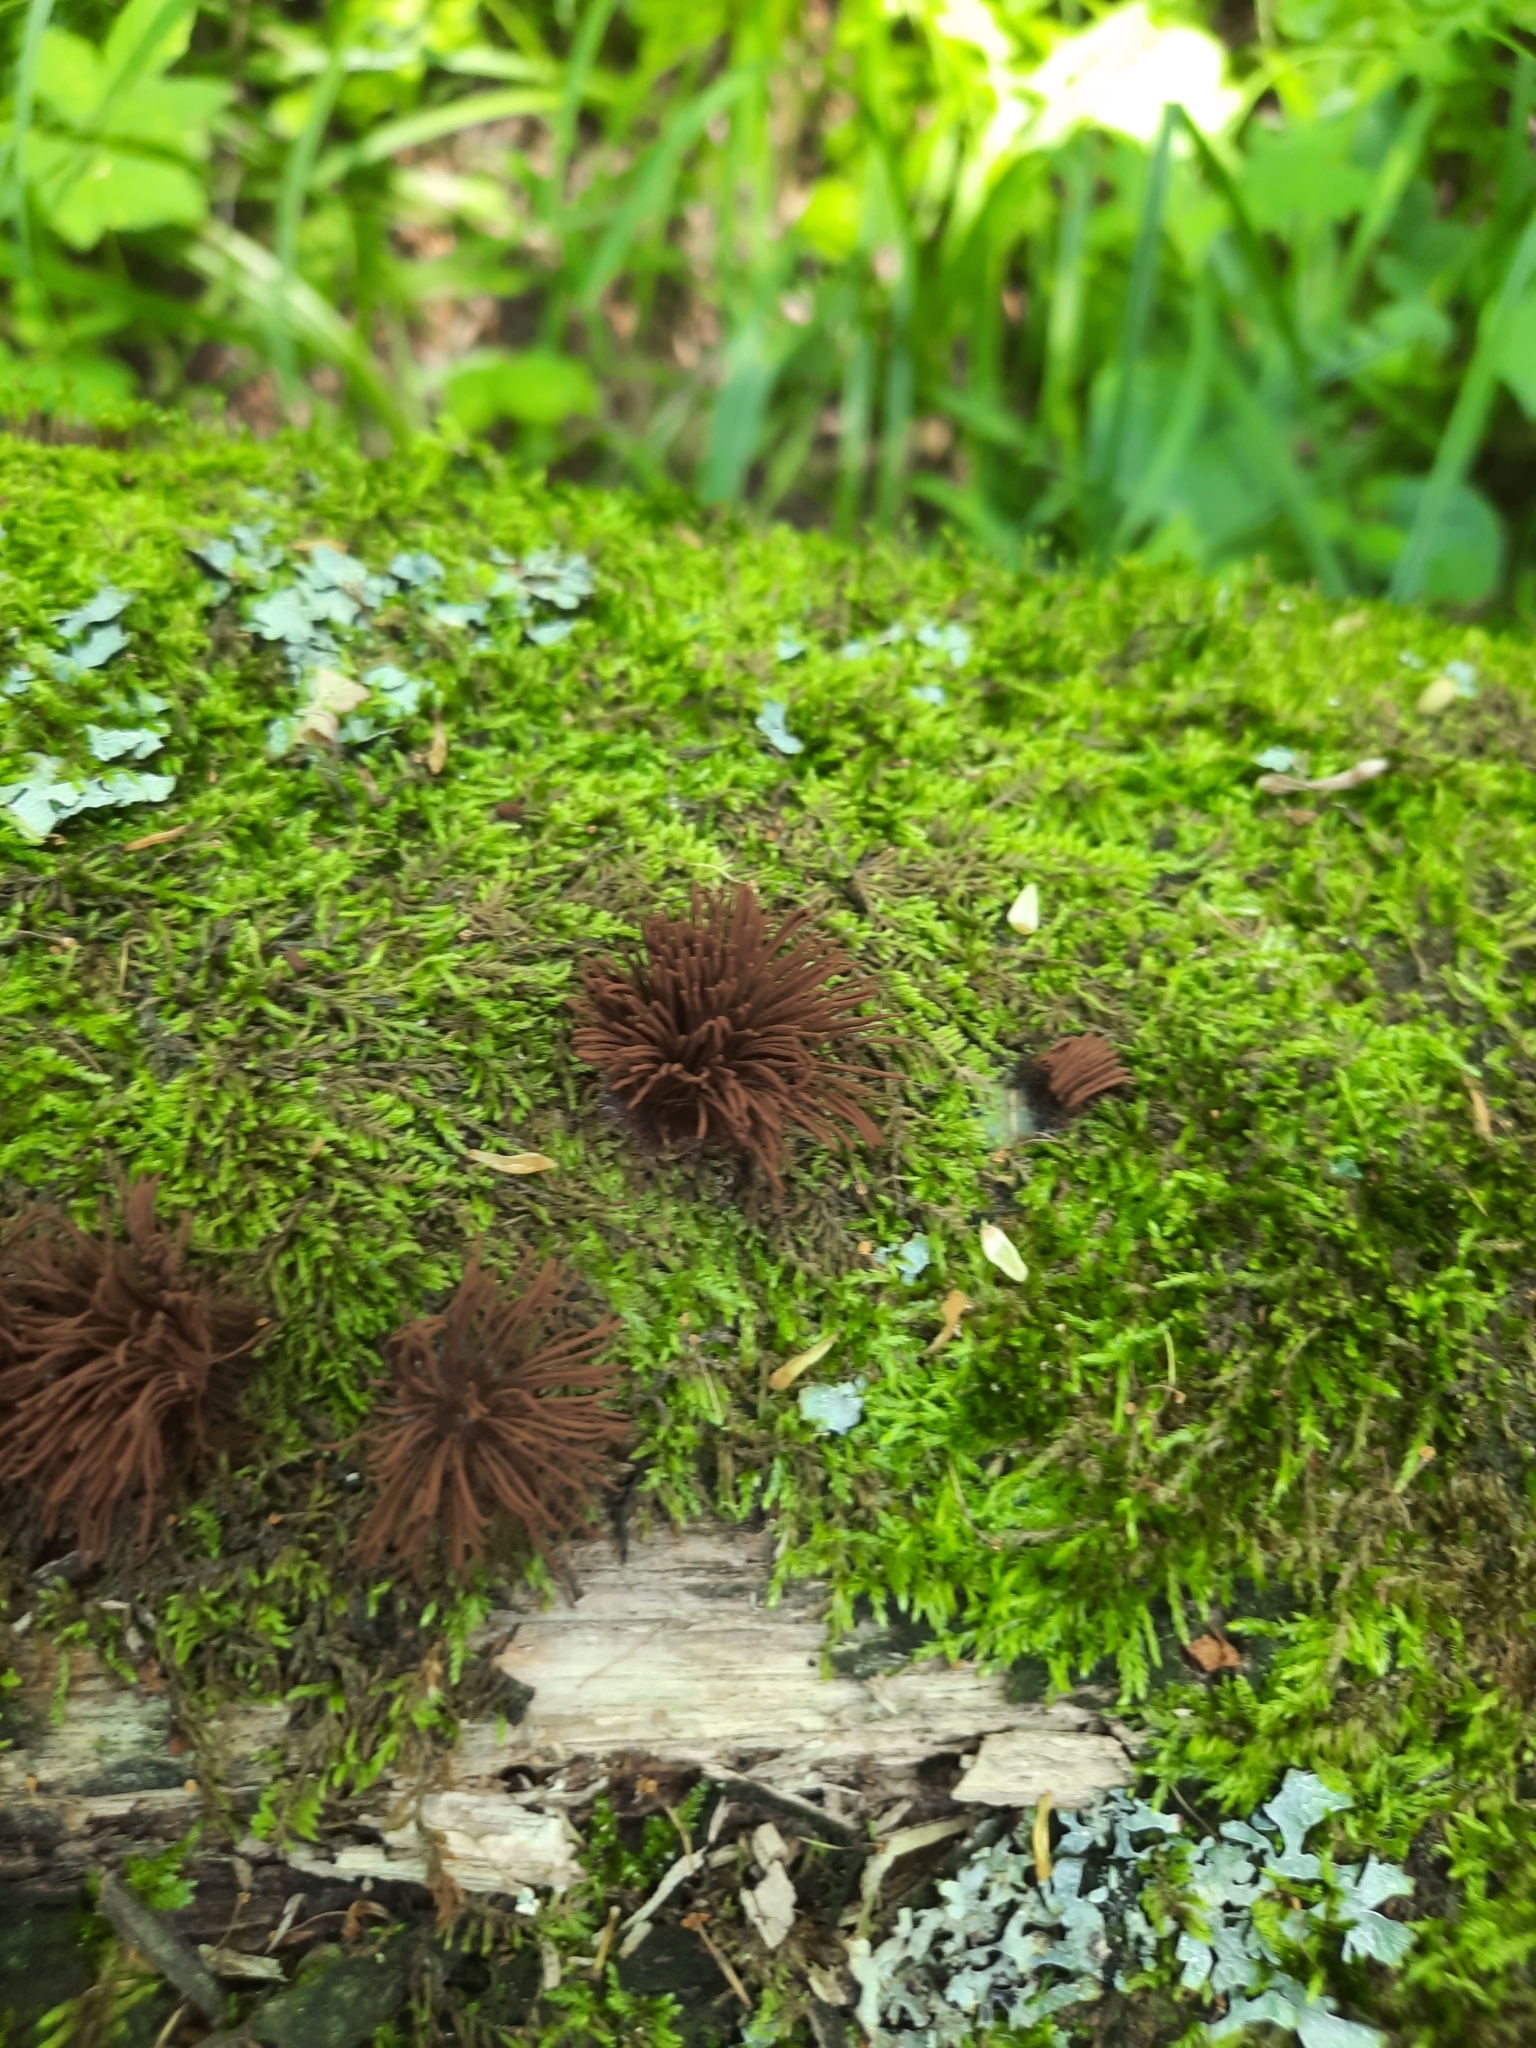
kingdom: Protozoa
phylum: Mycetozoa
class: Myxomycetes
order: Stemonitidales
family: Stemonitidaceae
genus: Stemonitis
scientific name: Stemonitis axifera
